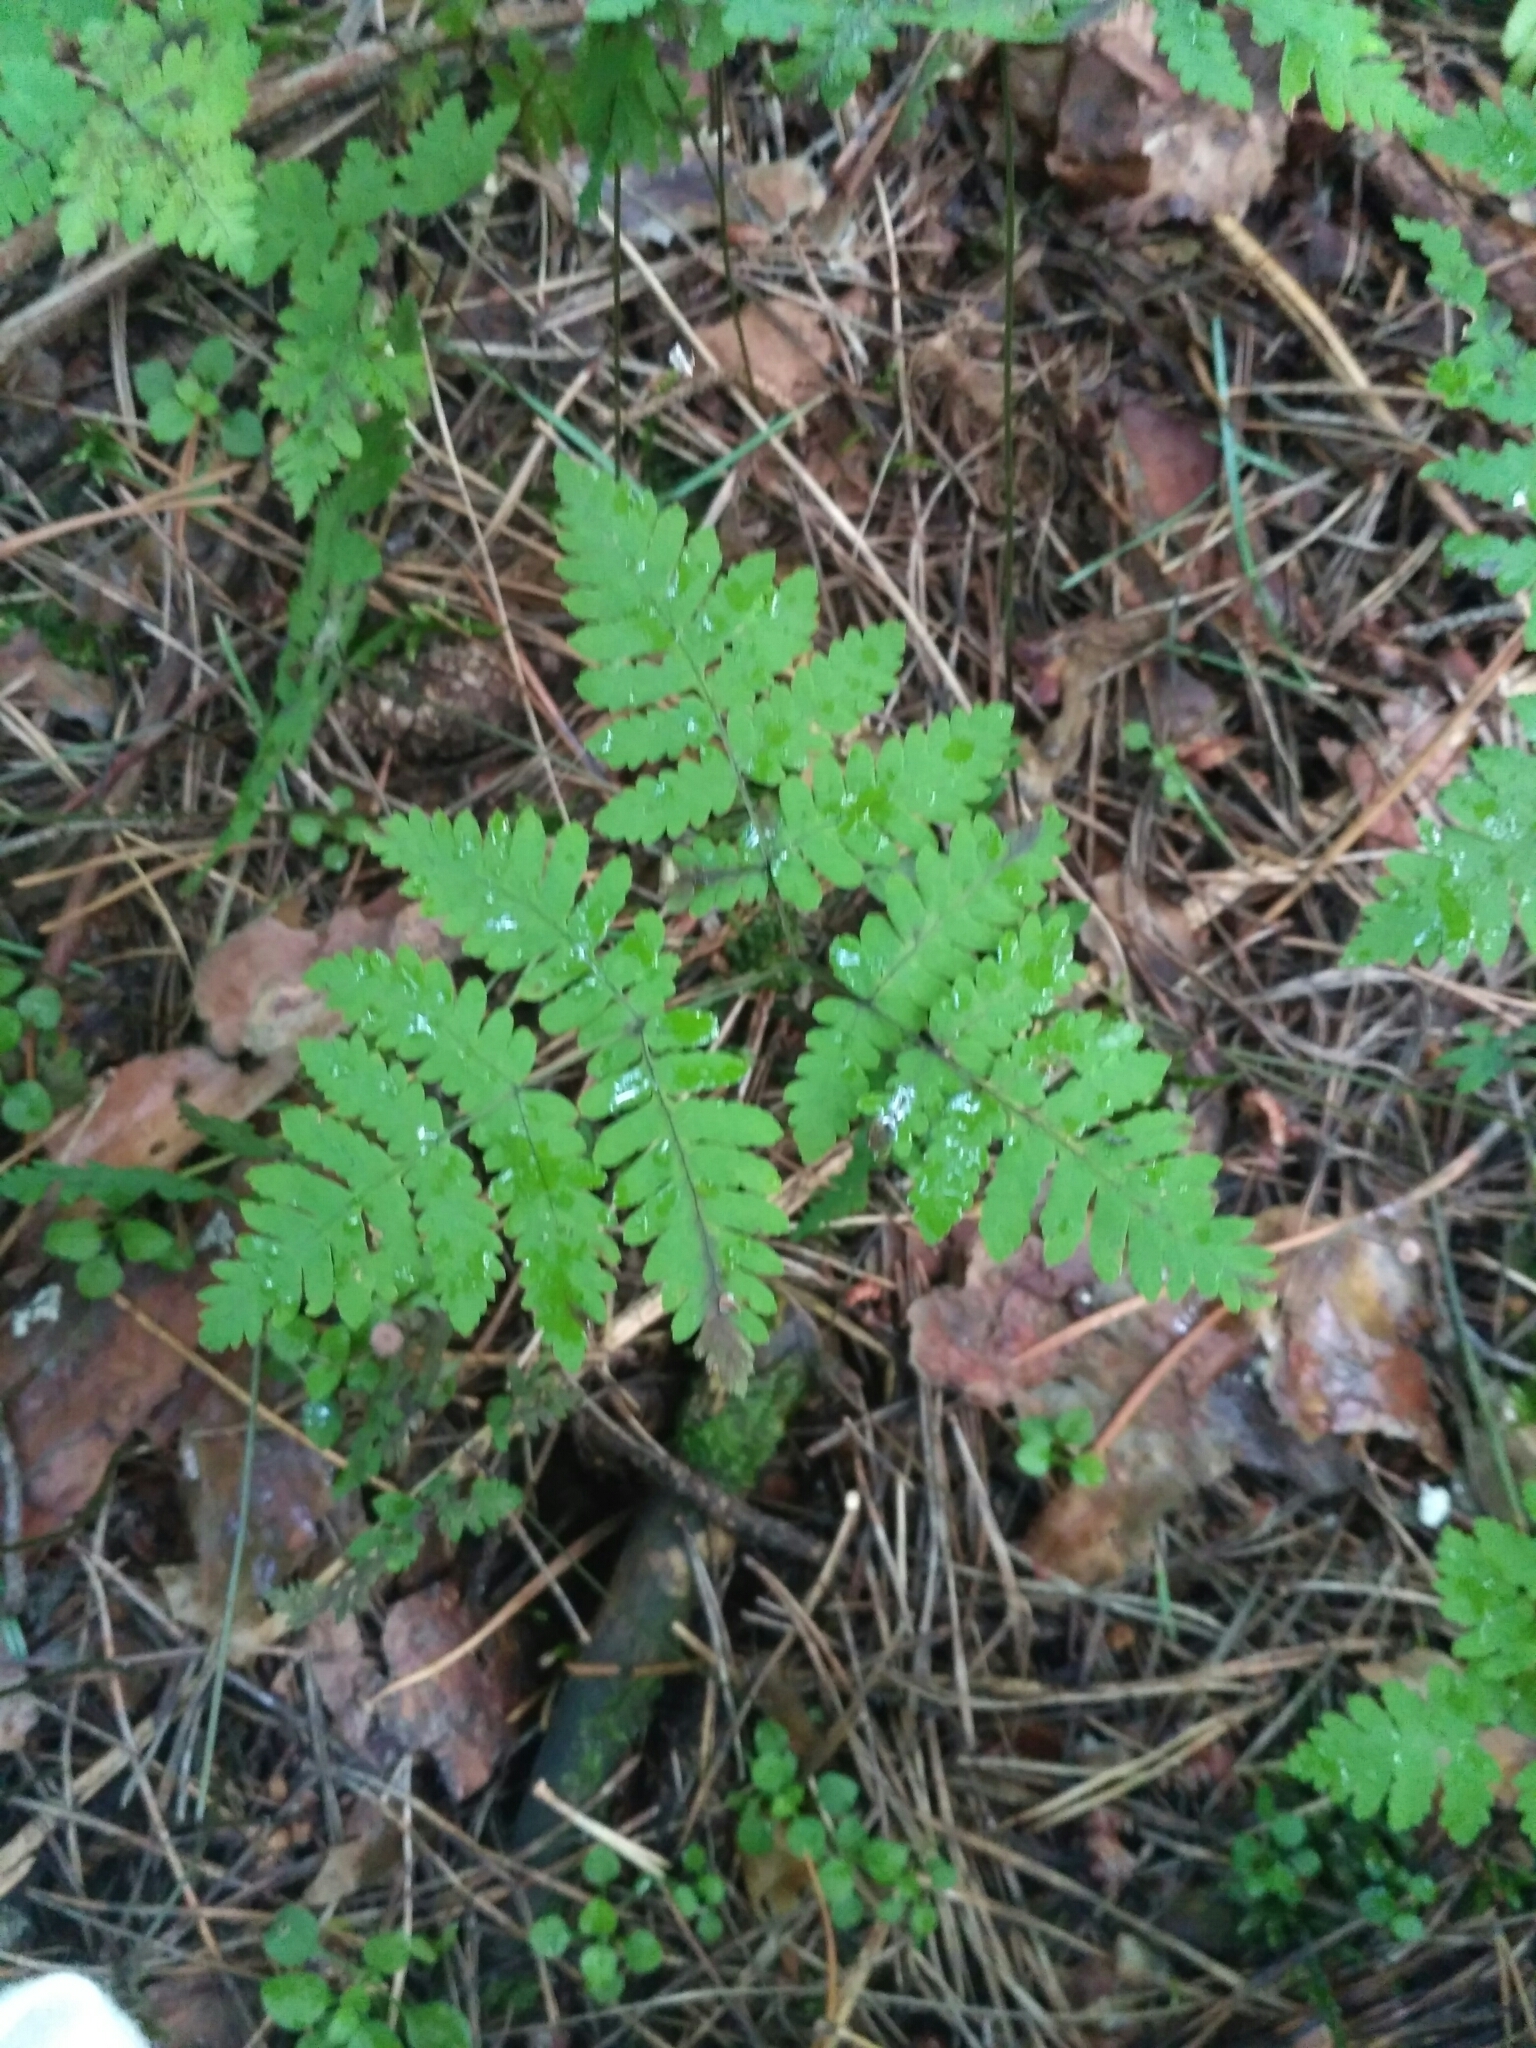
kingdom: Plantae
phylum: Tracheophyta
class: Polypodiopsida
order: Polypodiales
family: Cystopteridaceae
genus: Gymnocarpium
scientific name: Gymnocarpium dryopteris
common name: Oak fern
